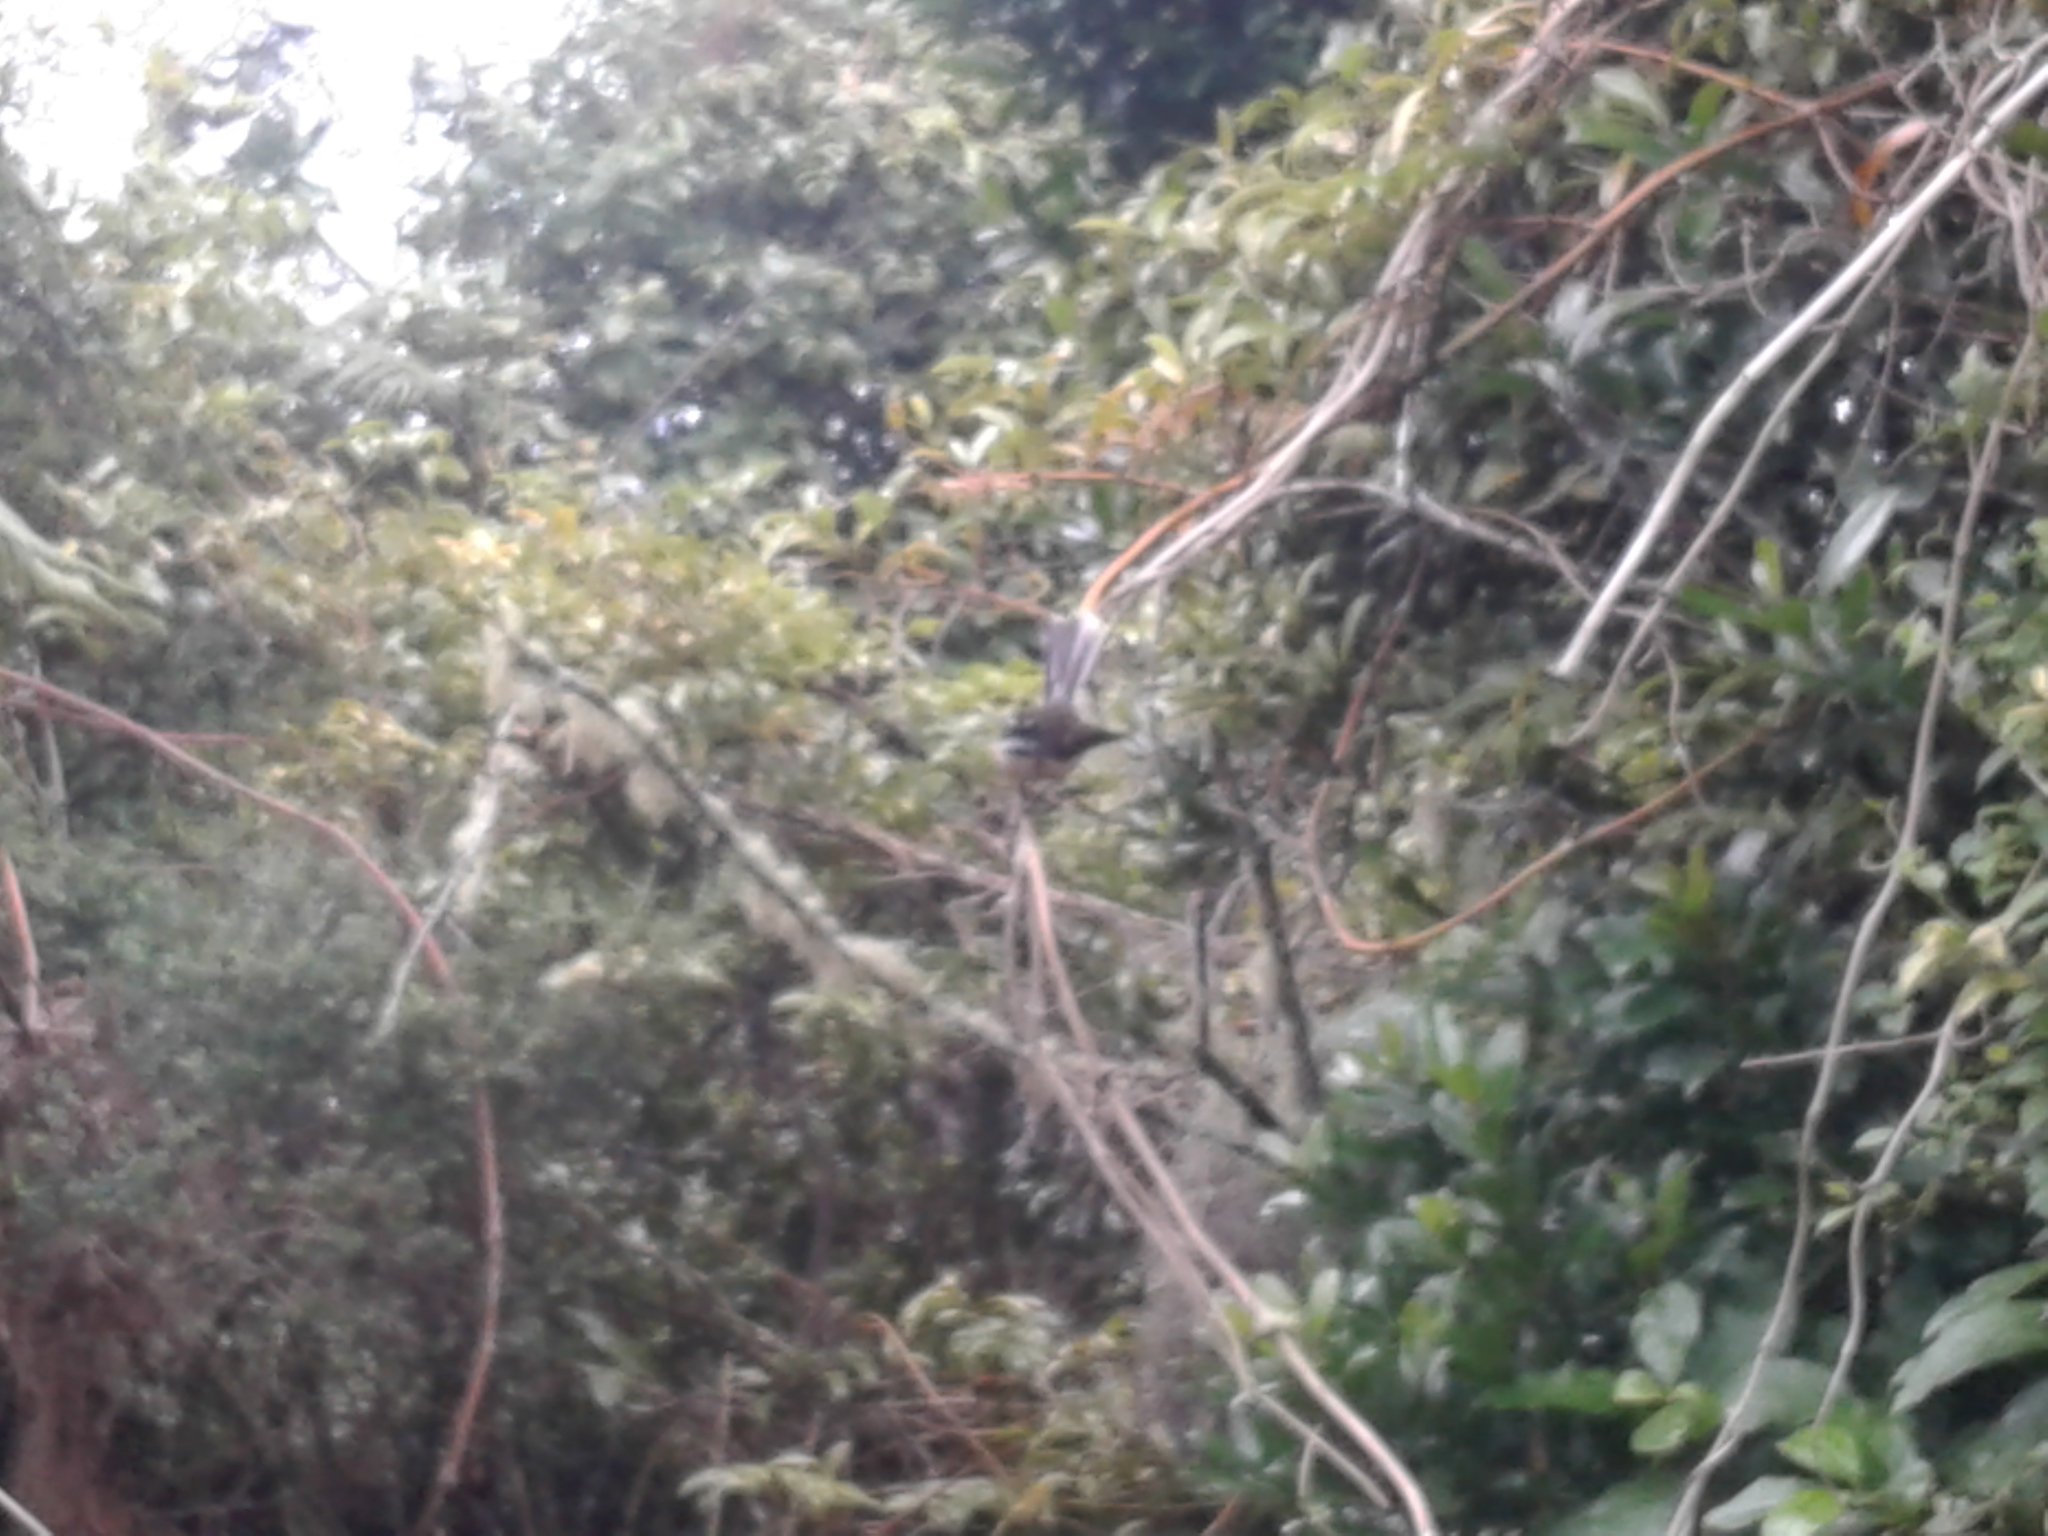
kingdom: Animalia
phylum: Chordata
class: Aves
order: Passeriformes
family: Rhipiduridae
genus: Rhipidura
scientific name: Rhipidura fuliginosa
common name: New zealand fantail
